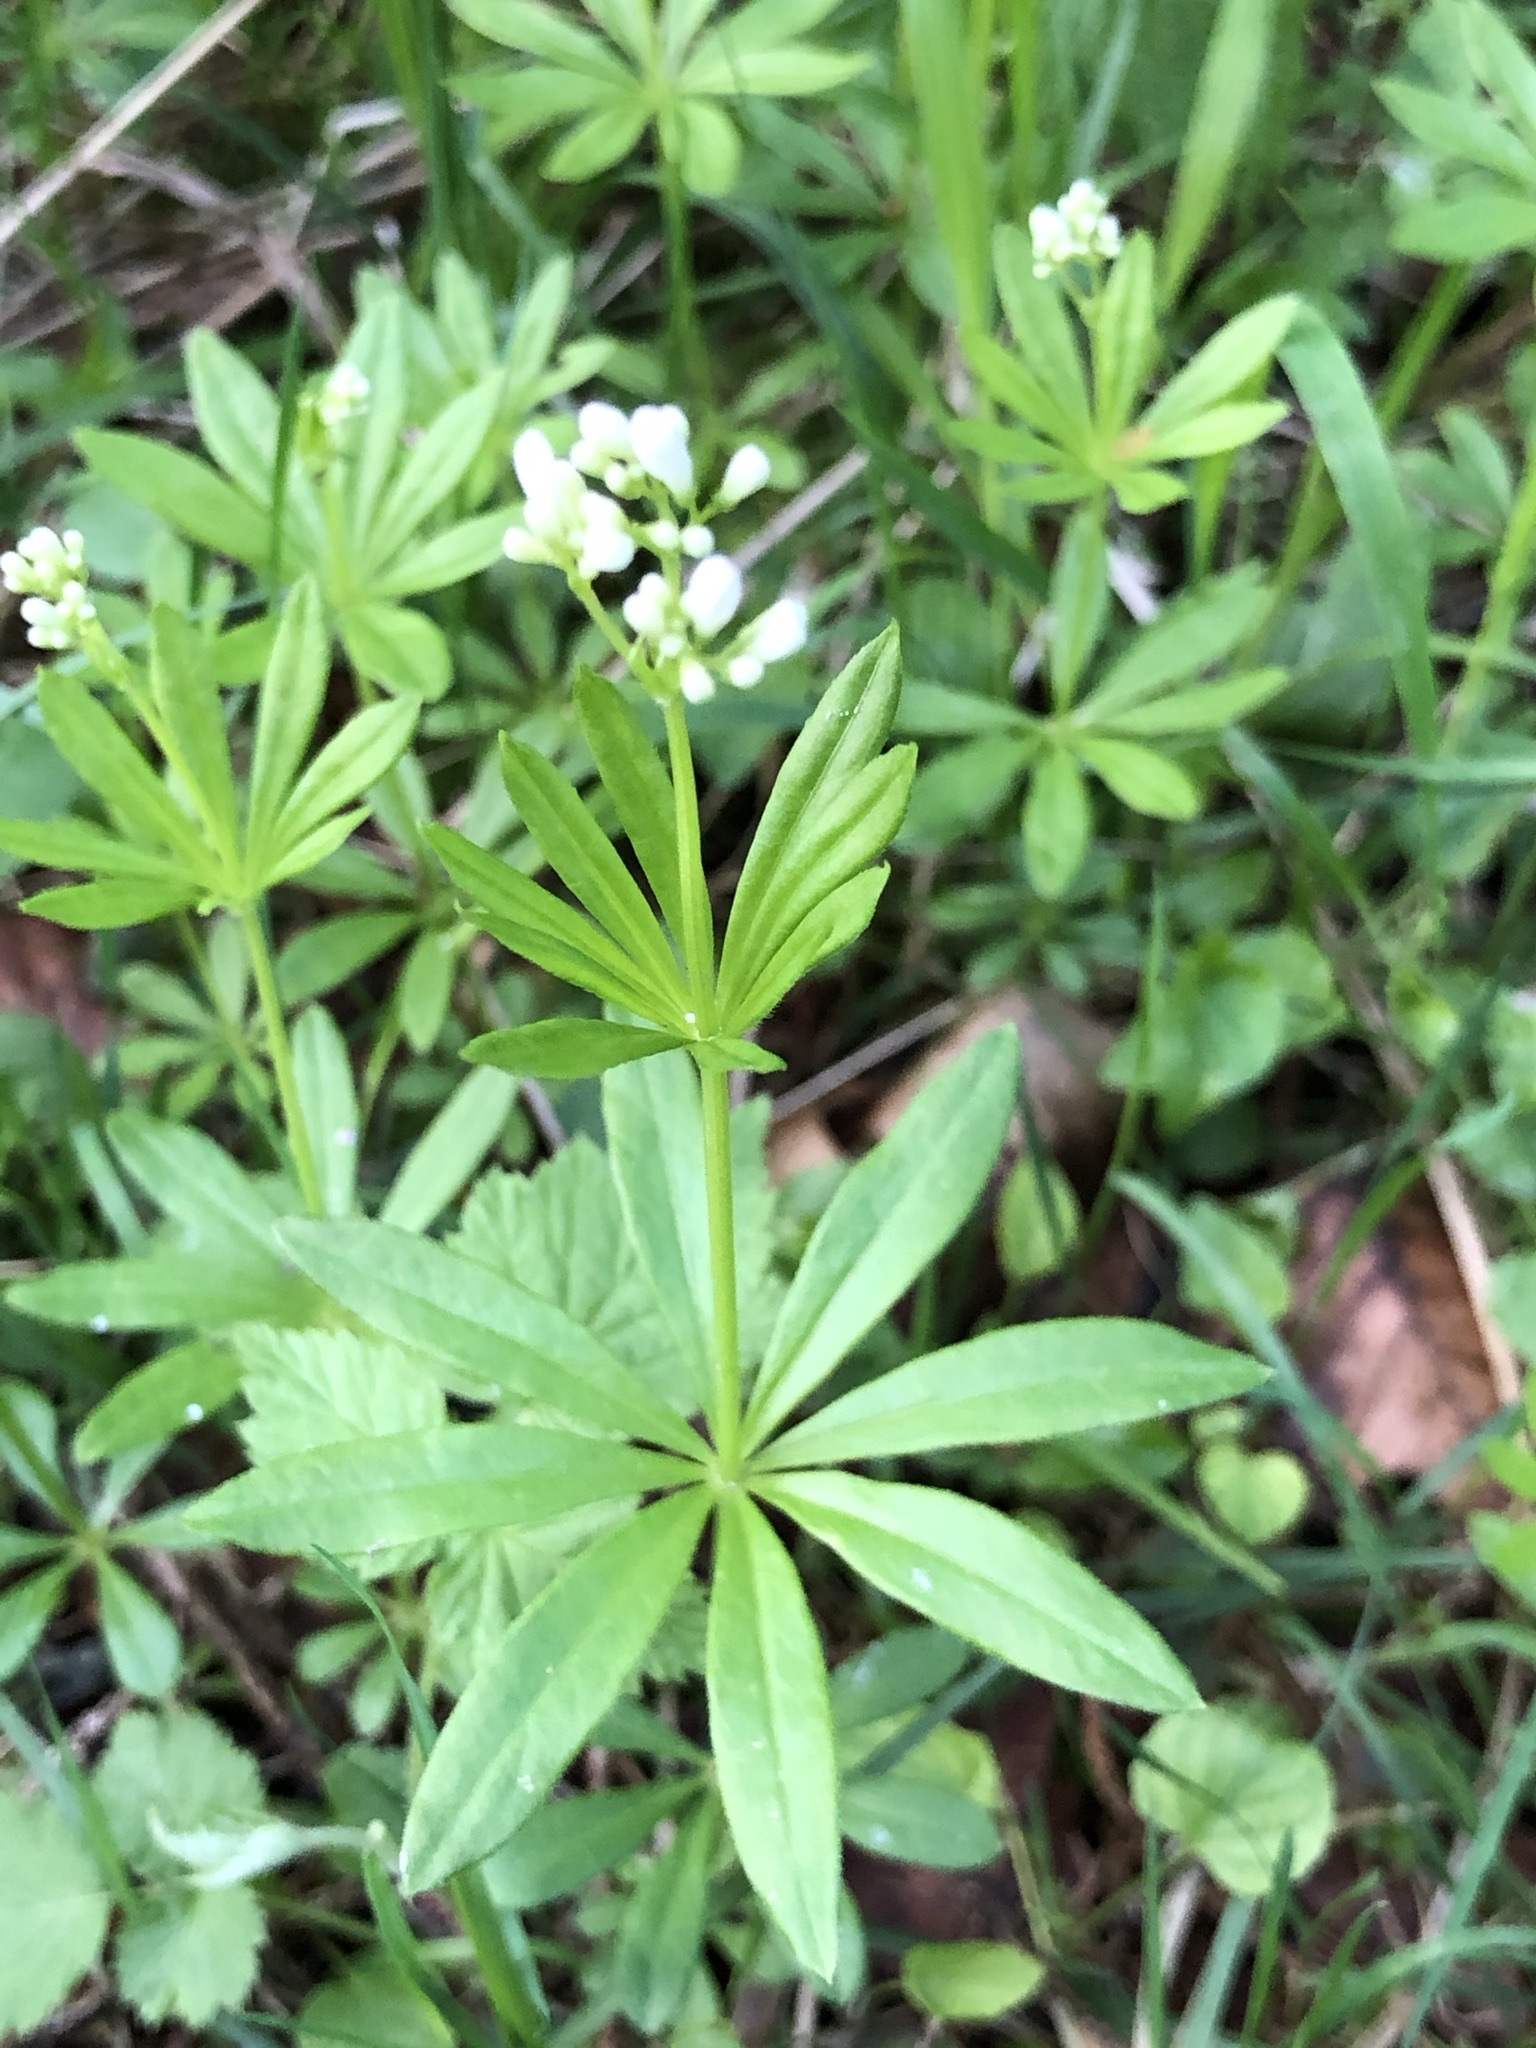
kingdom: Plantae
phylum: Tracheophyta
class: Magnoliopsida
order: Gentianales
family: Rubiaceae
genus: Galium
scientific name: Galium odoratum
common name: Sweet woodruff
